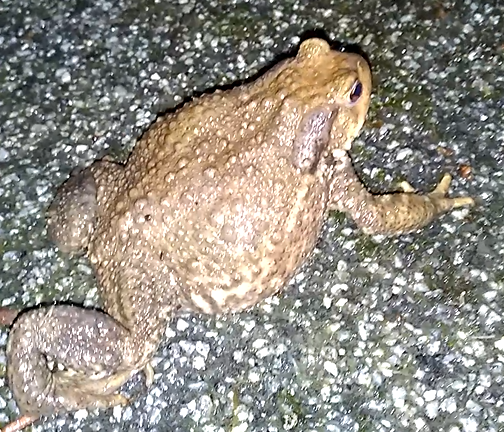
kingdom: Animalia
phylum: Chordata
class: Amphibia
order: Anura
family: Bufonidae
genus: Bufo
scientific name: Bufo spinosus
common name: Western common toad
